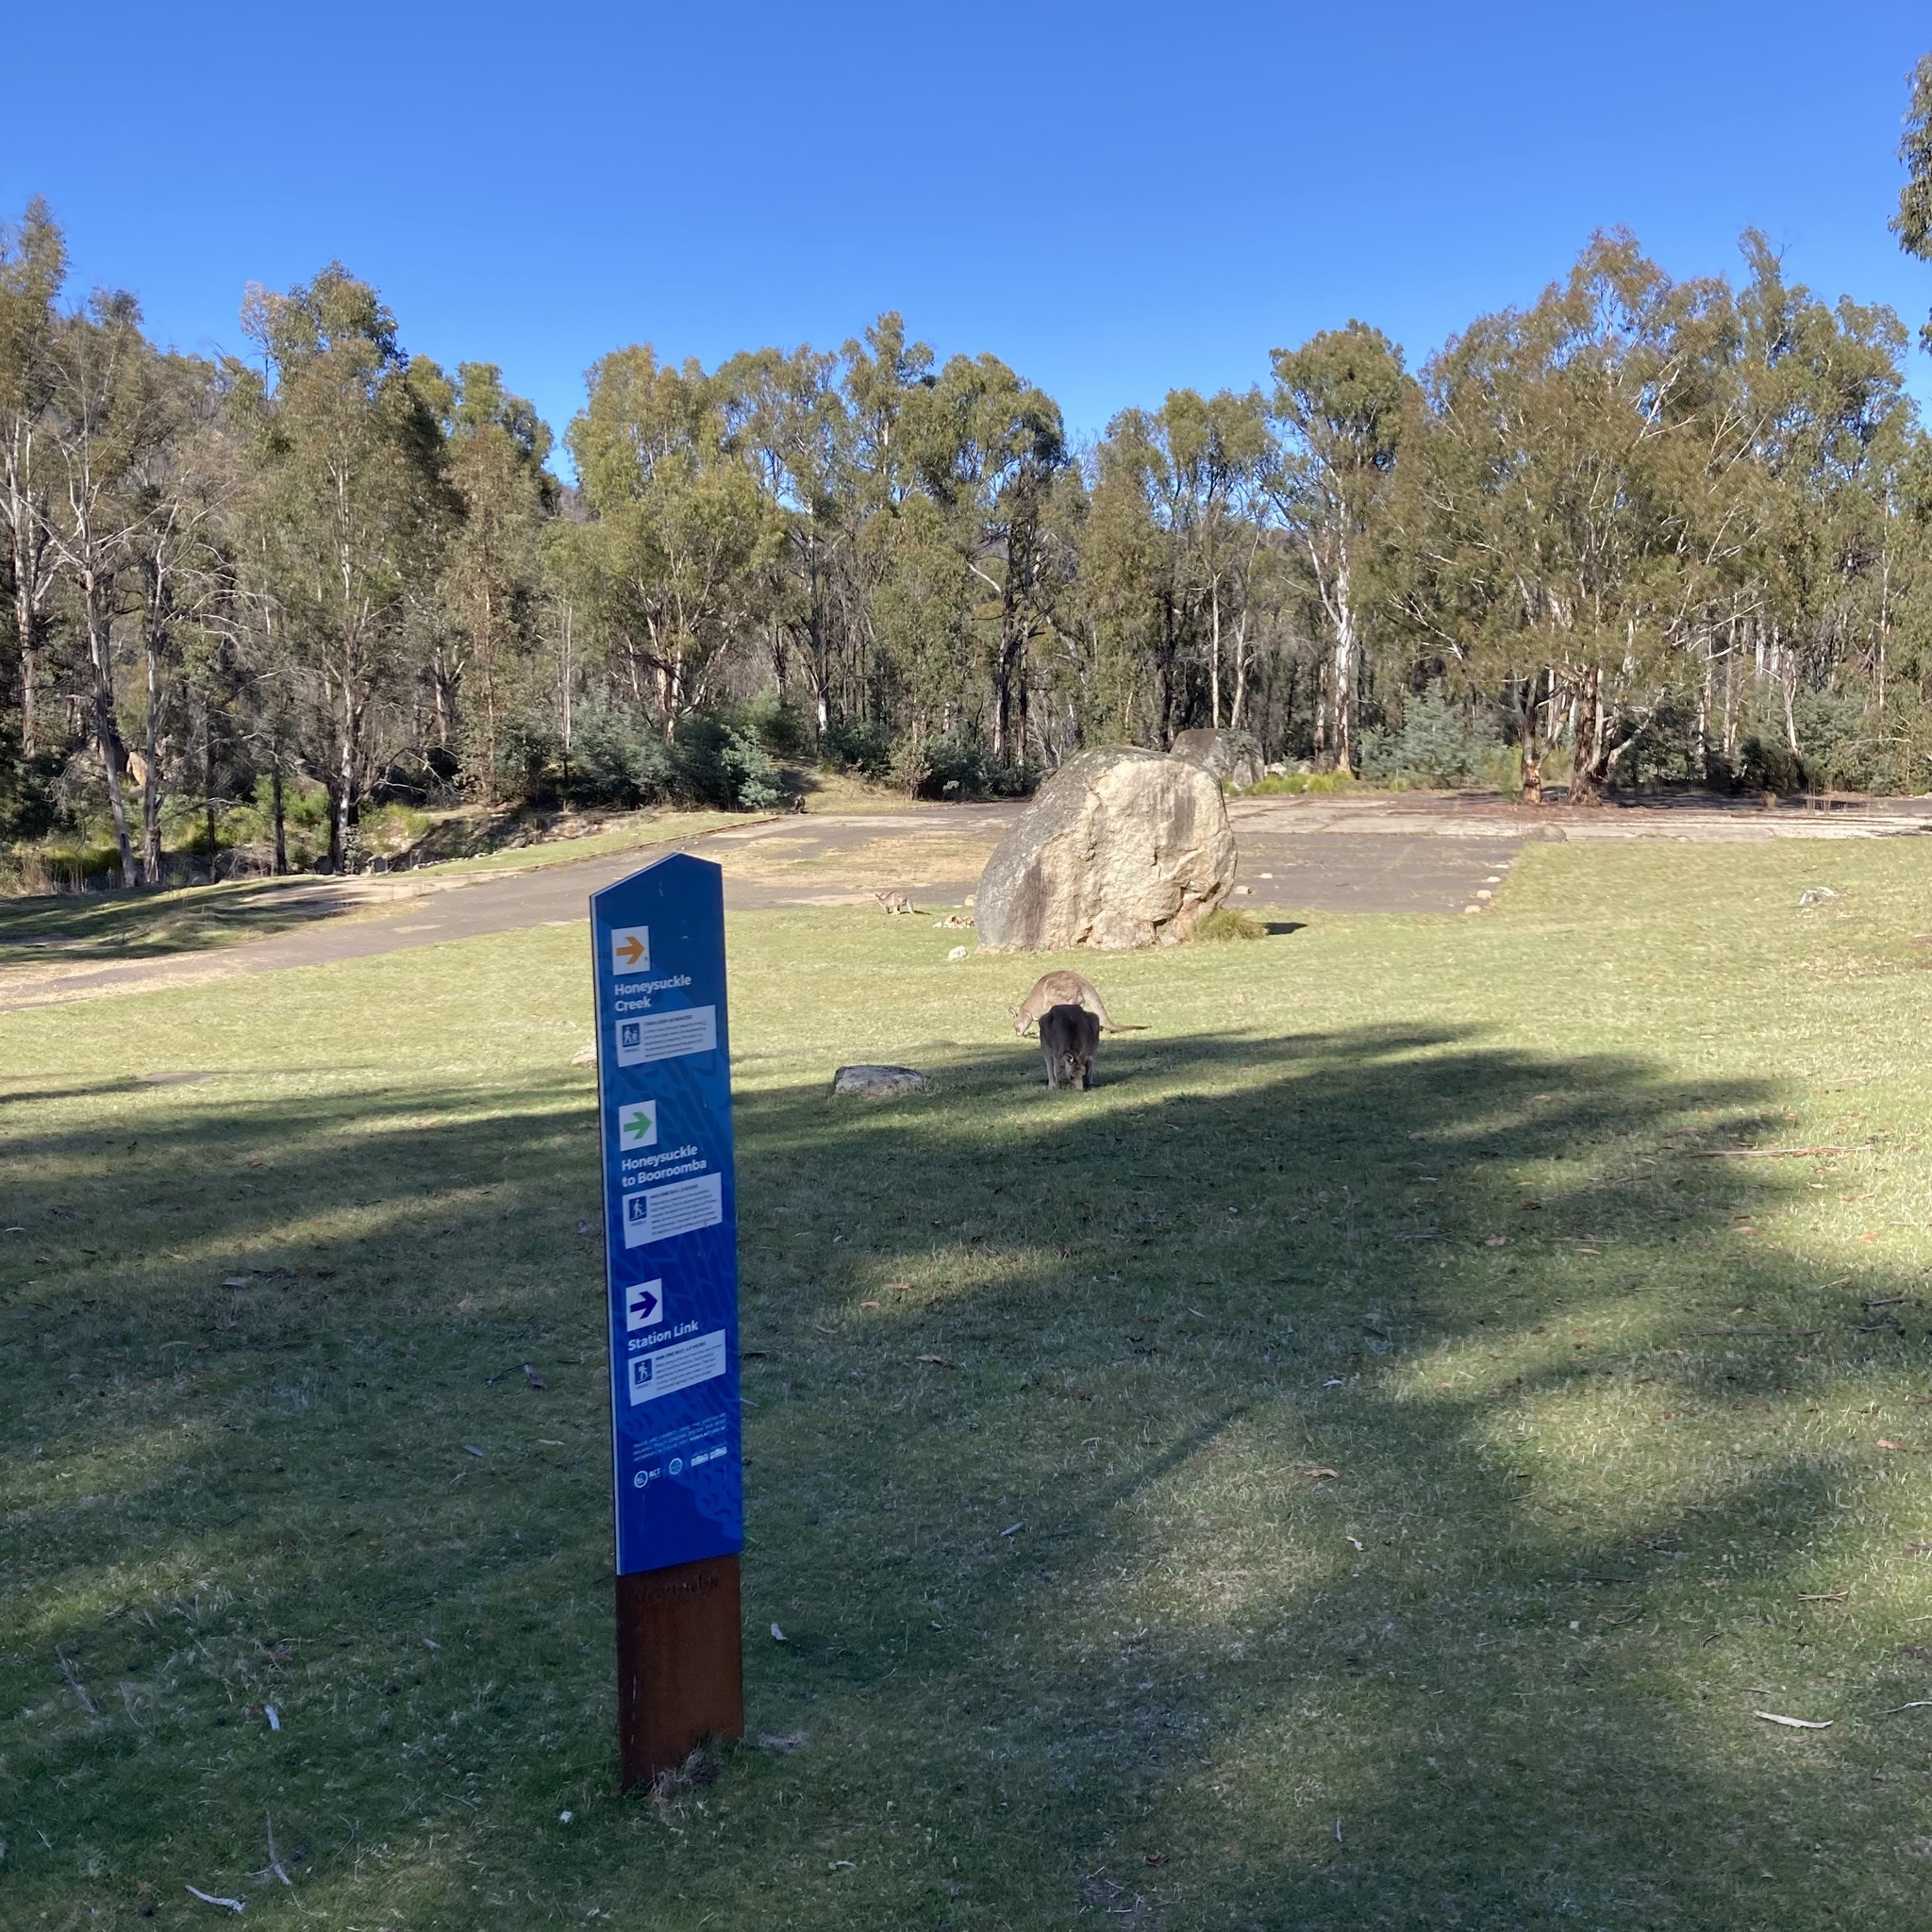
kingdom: Animalia
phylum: Chordata
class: Mammalia
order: Diprotodontia
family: Macropodidae
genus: Macropus
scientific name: Macropus giganteus
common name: Eastern grey kangaroo
